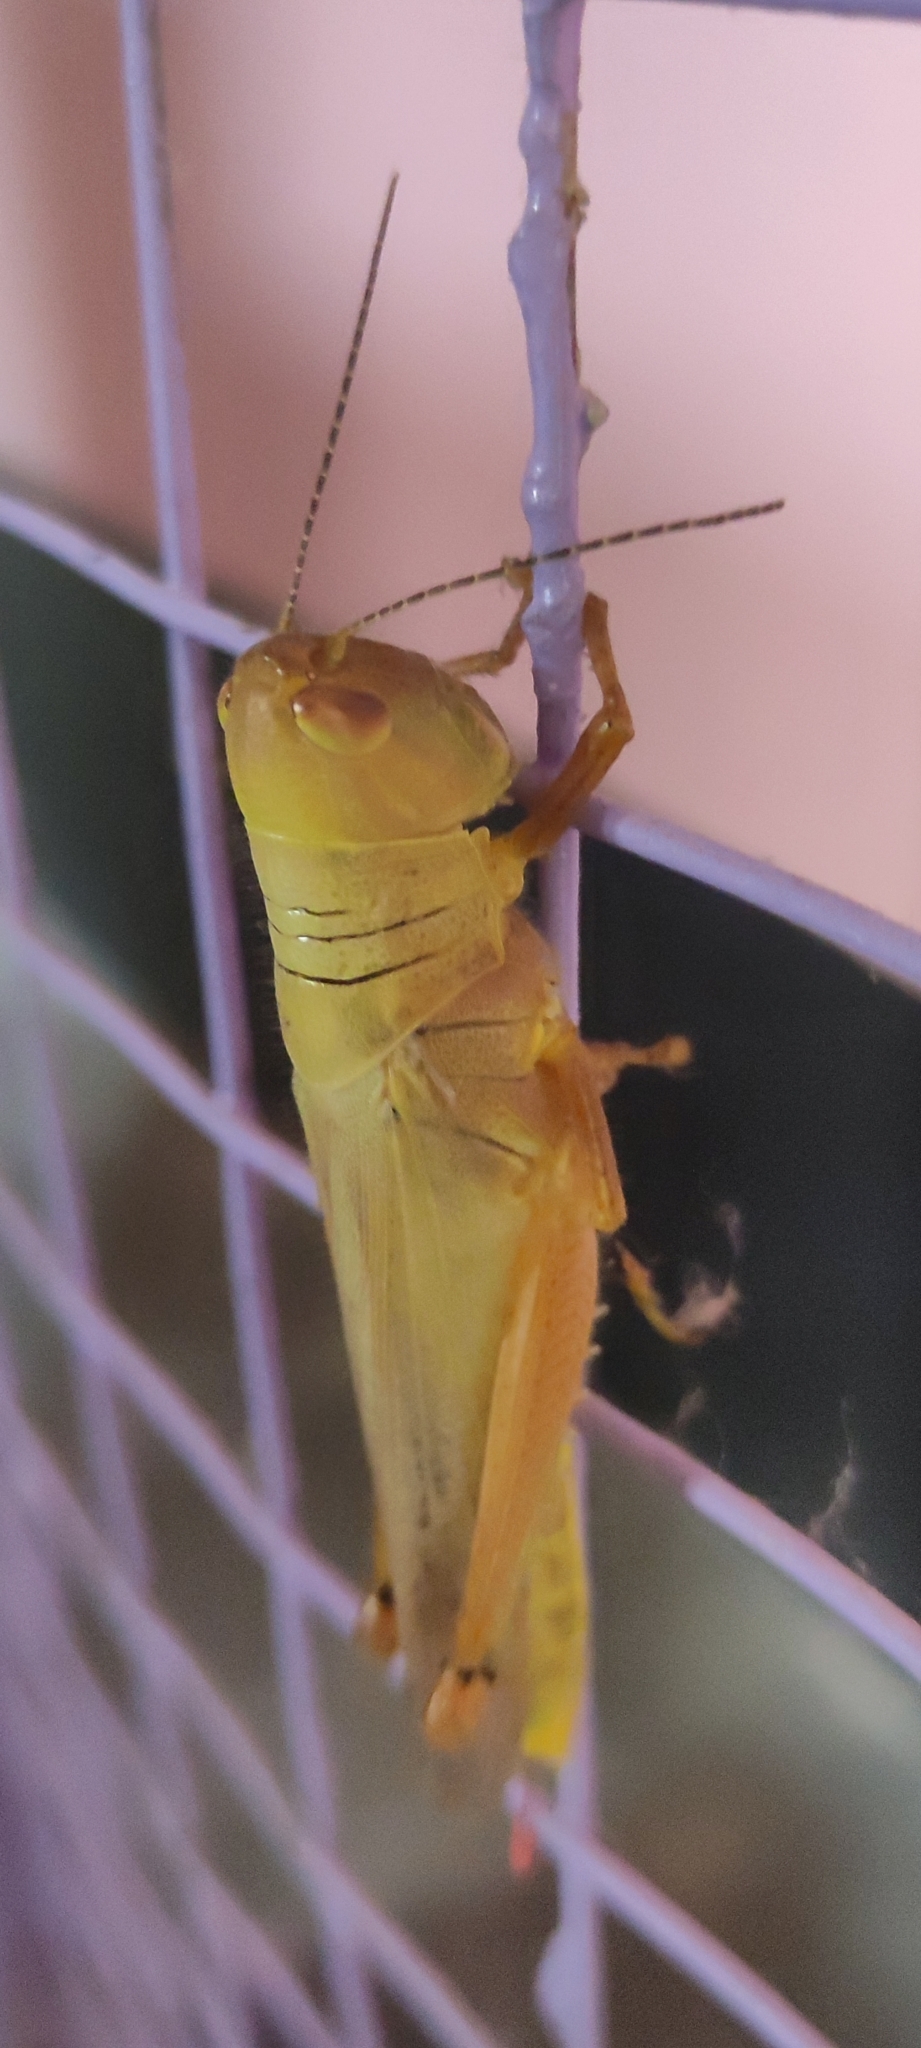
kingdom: Animalia
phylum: Arthropoda
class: Insecta
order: Orthoptera
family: Acrididae
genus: Hieroglyphus
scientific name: Hieroglyphus annulicornis
